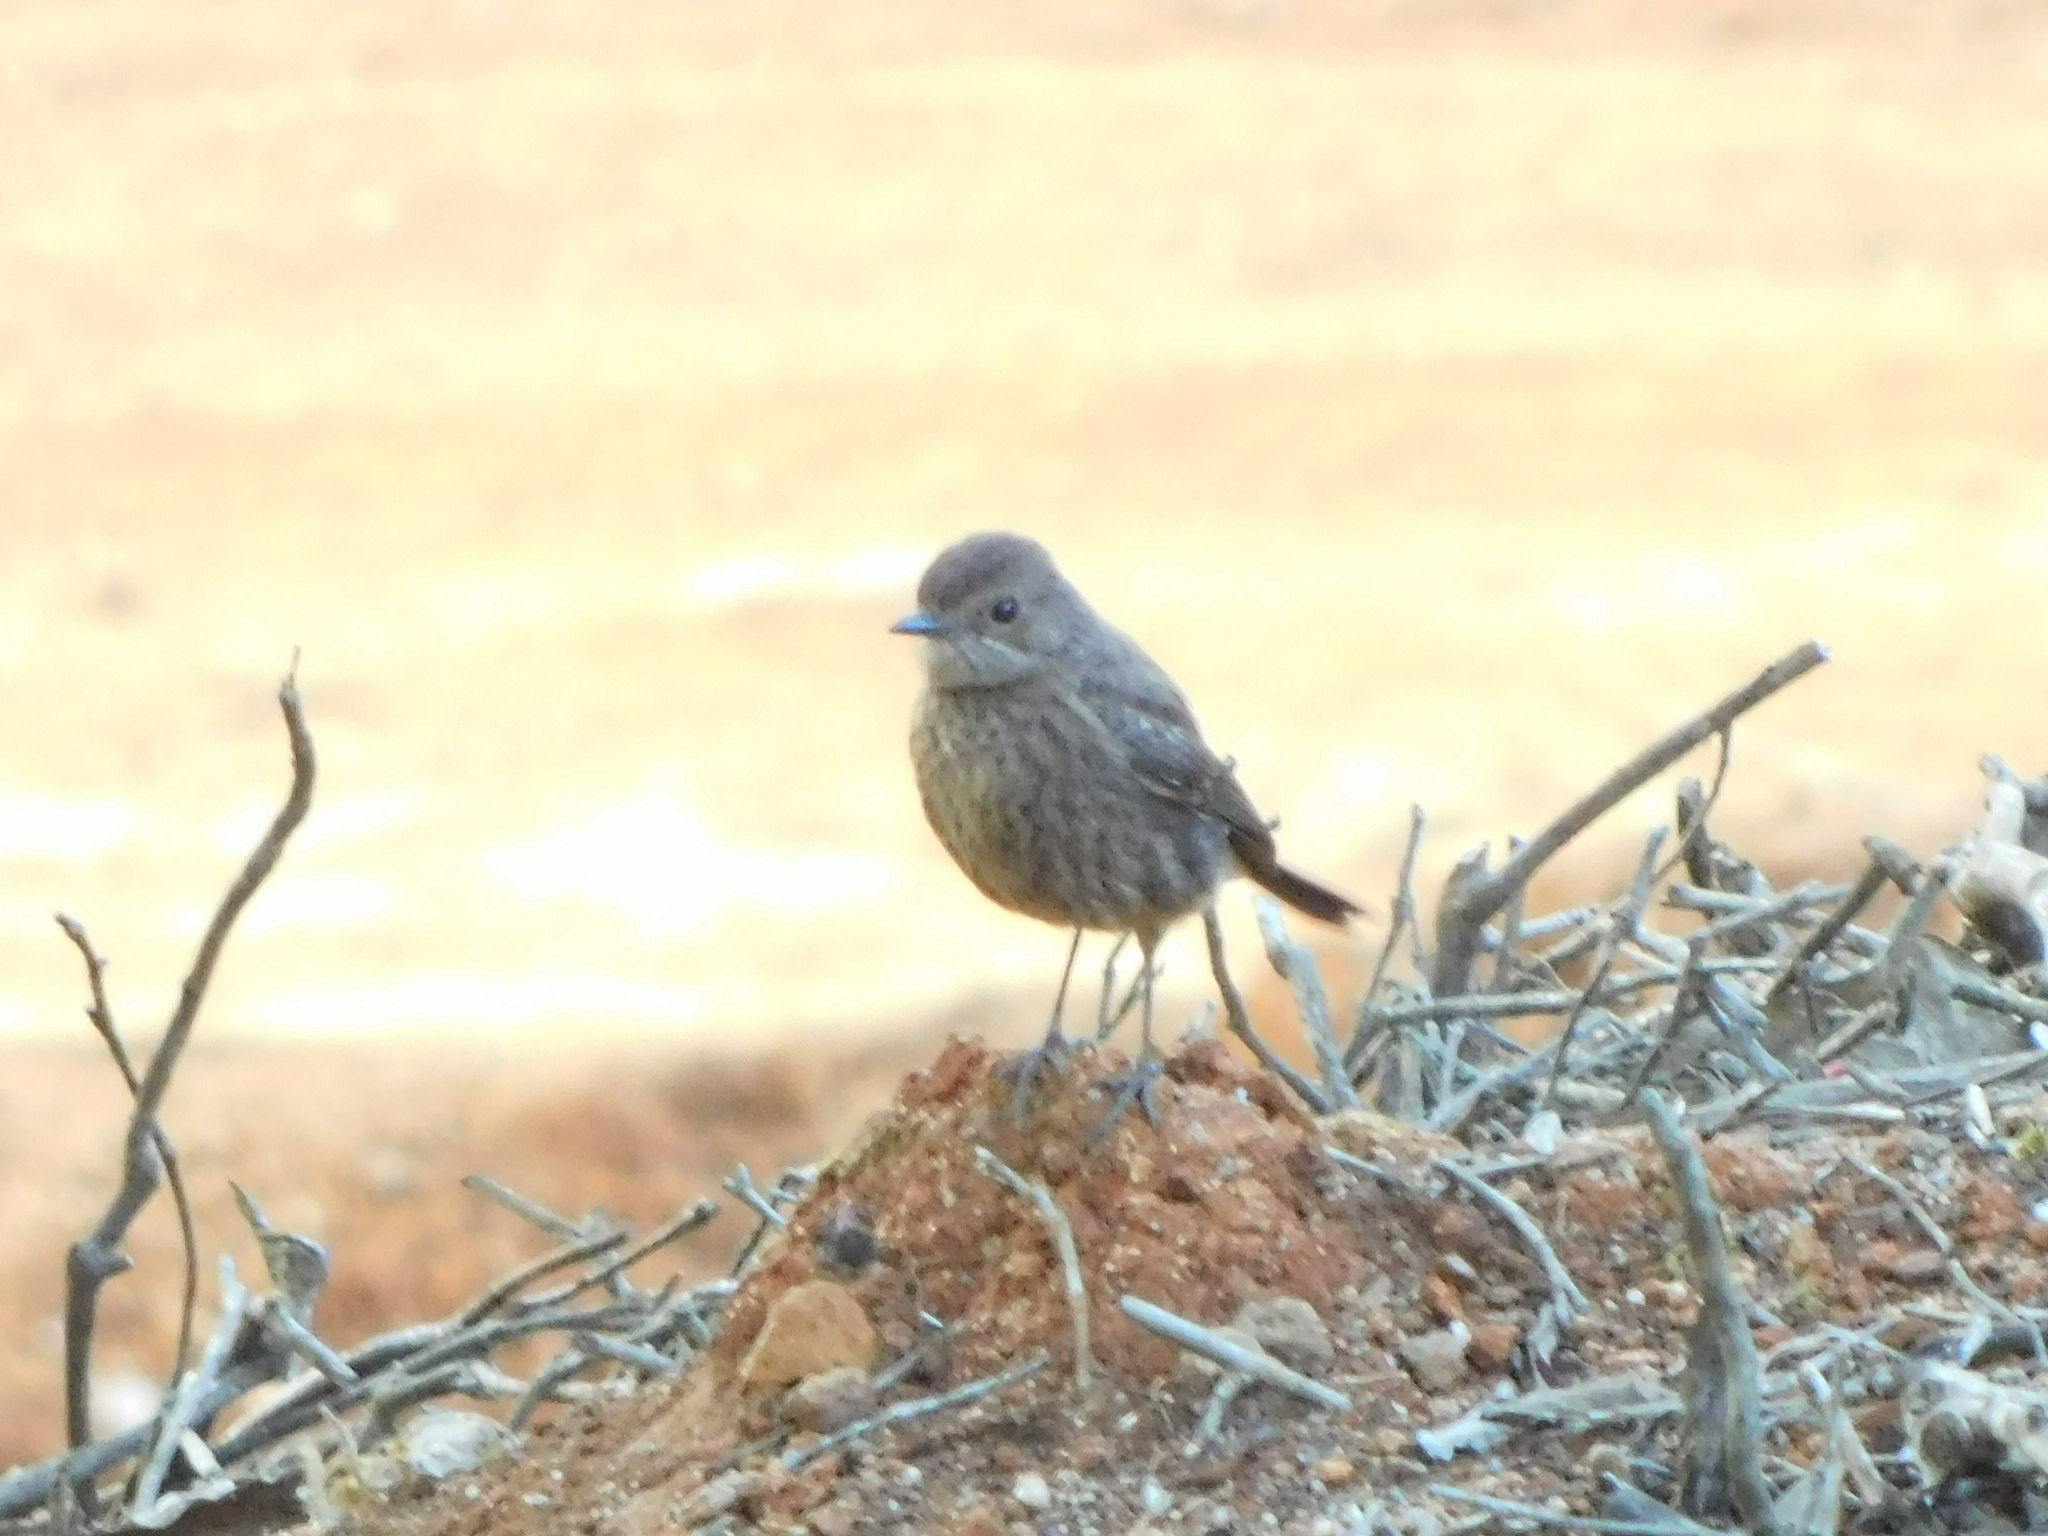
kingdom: Animalia
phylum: Chordata
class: Aves
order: Passeriformes
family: Muscicapidae
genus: Saxicola
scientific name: Saxicola caprata
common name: Pied bush chat
